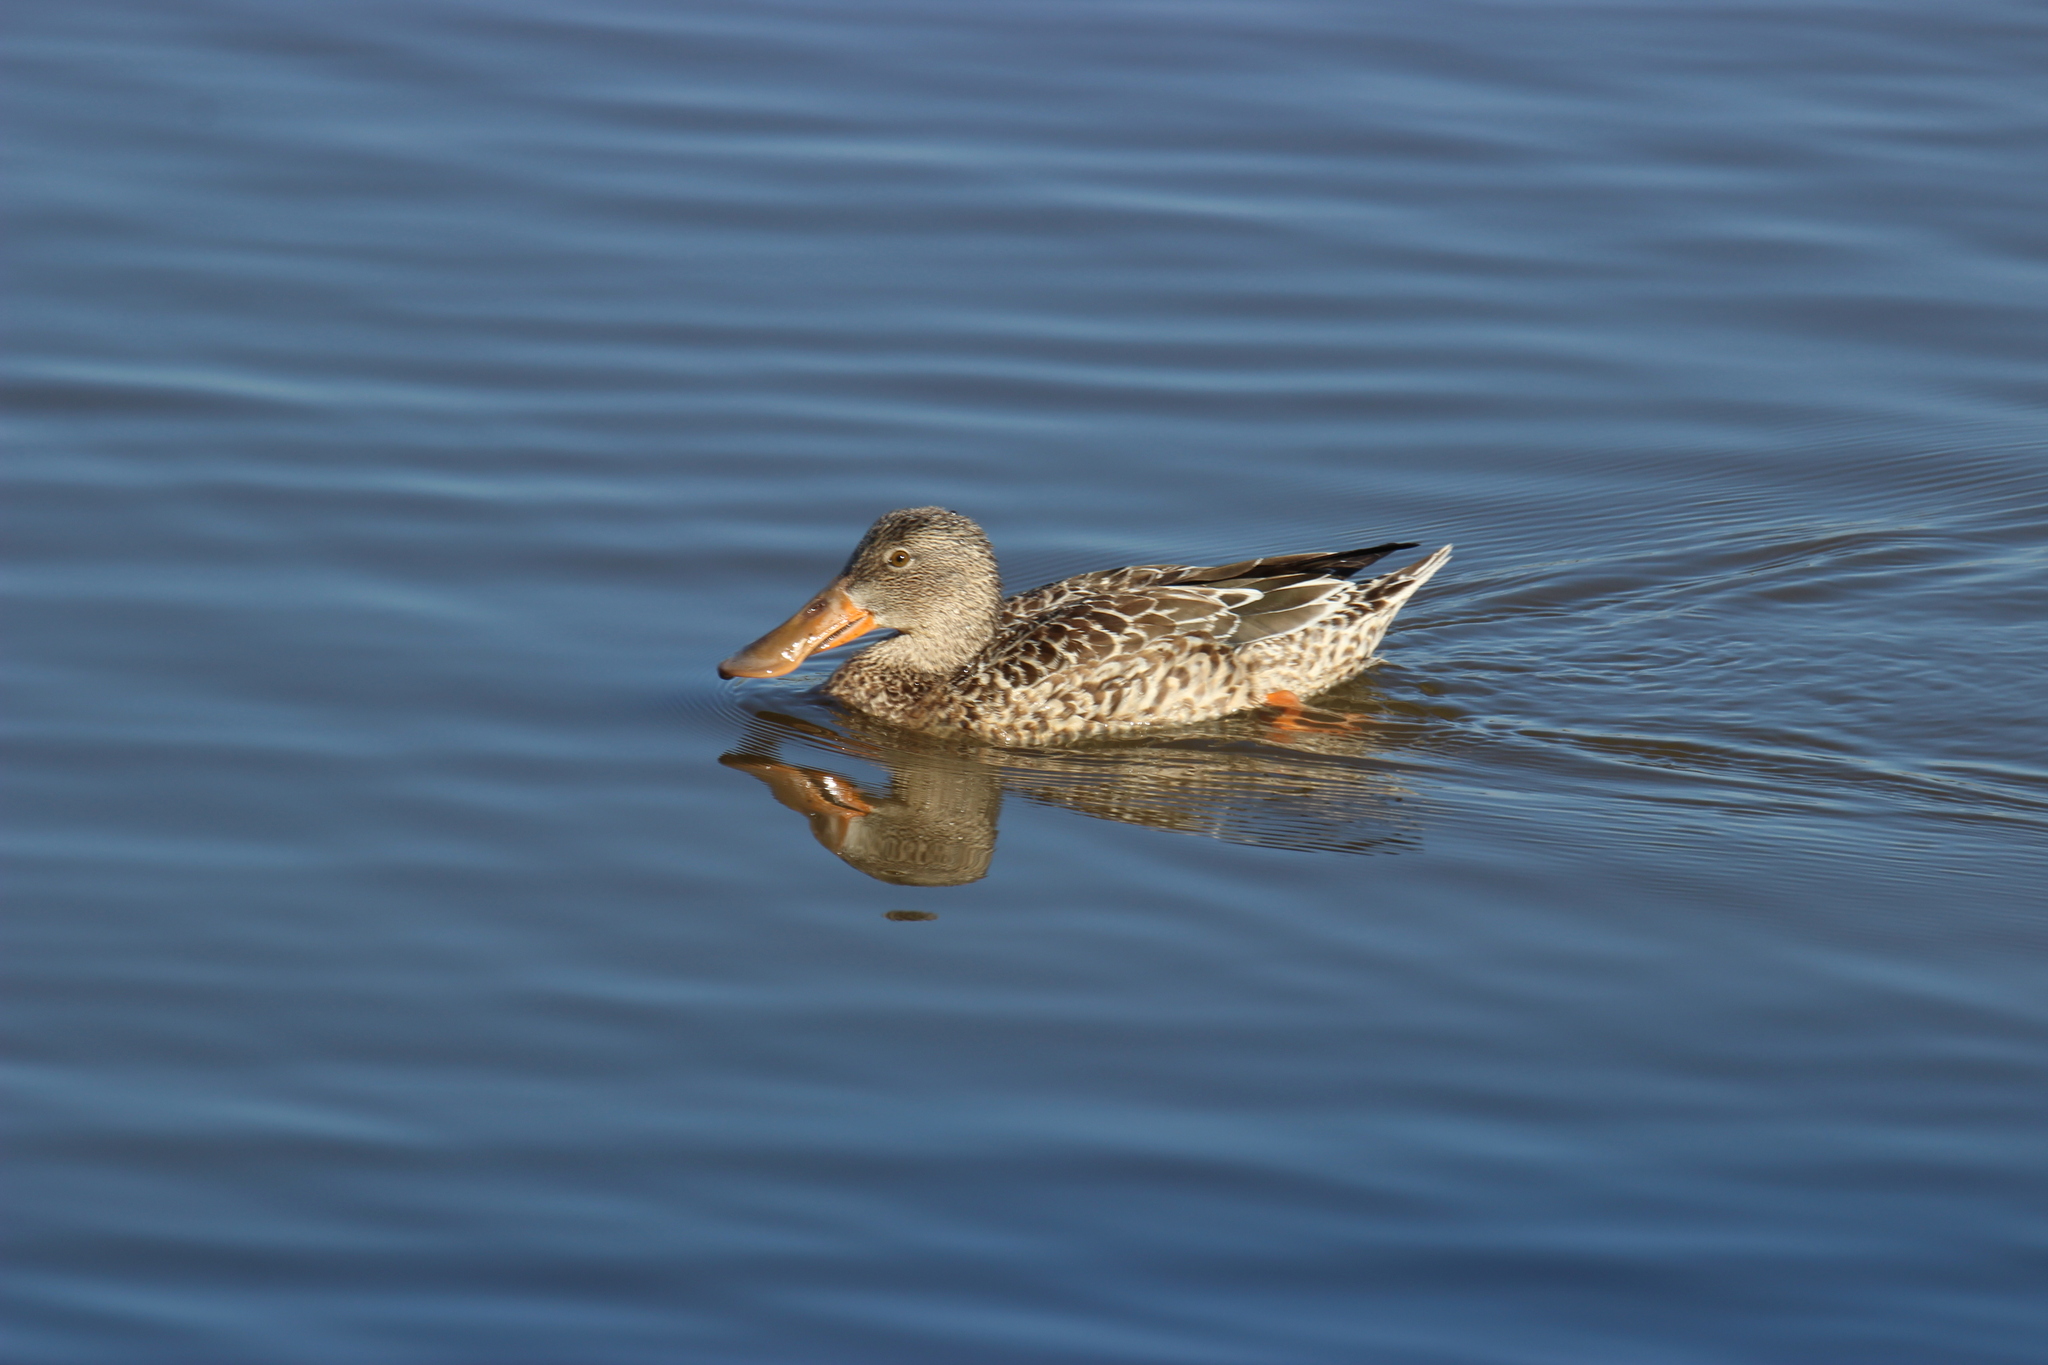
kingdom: Animalia
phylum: Chordata
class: Aves
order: Anseriformes
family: Anatidae
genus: Spatula
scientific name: Spatula clypeata
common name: Northern shoveler
